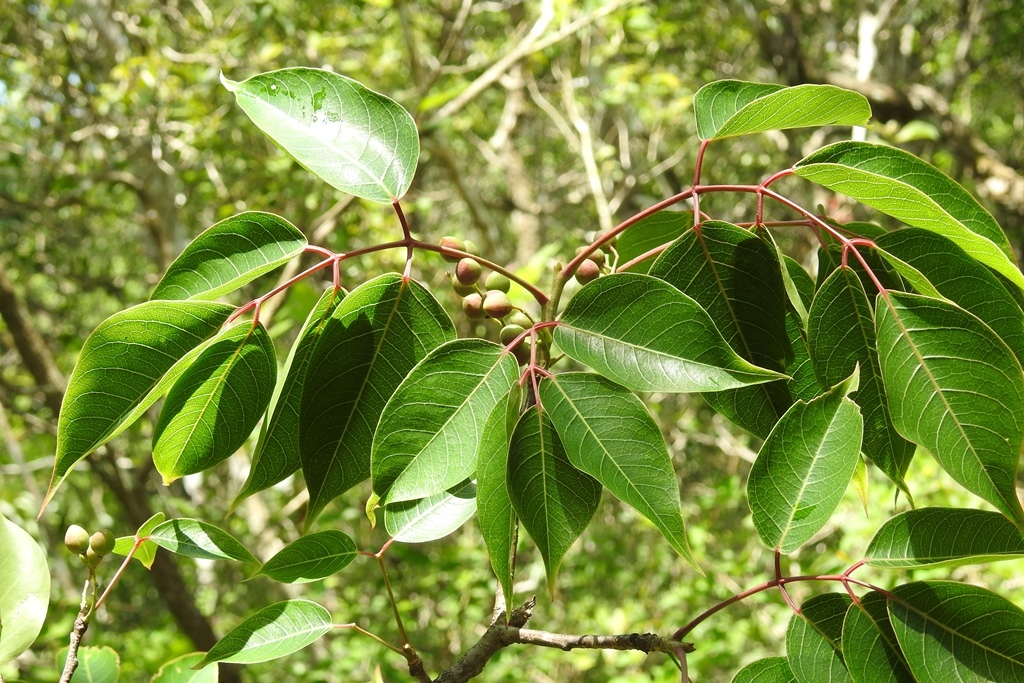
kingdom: Plantae
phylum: Tracheophyta
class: Magnoliopsida
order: Sapindales
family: Burseraceae
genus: Bursera
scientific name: Bursera simaruba
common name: Turpentine tree
